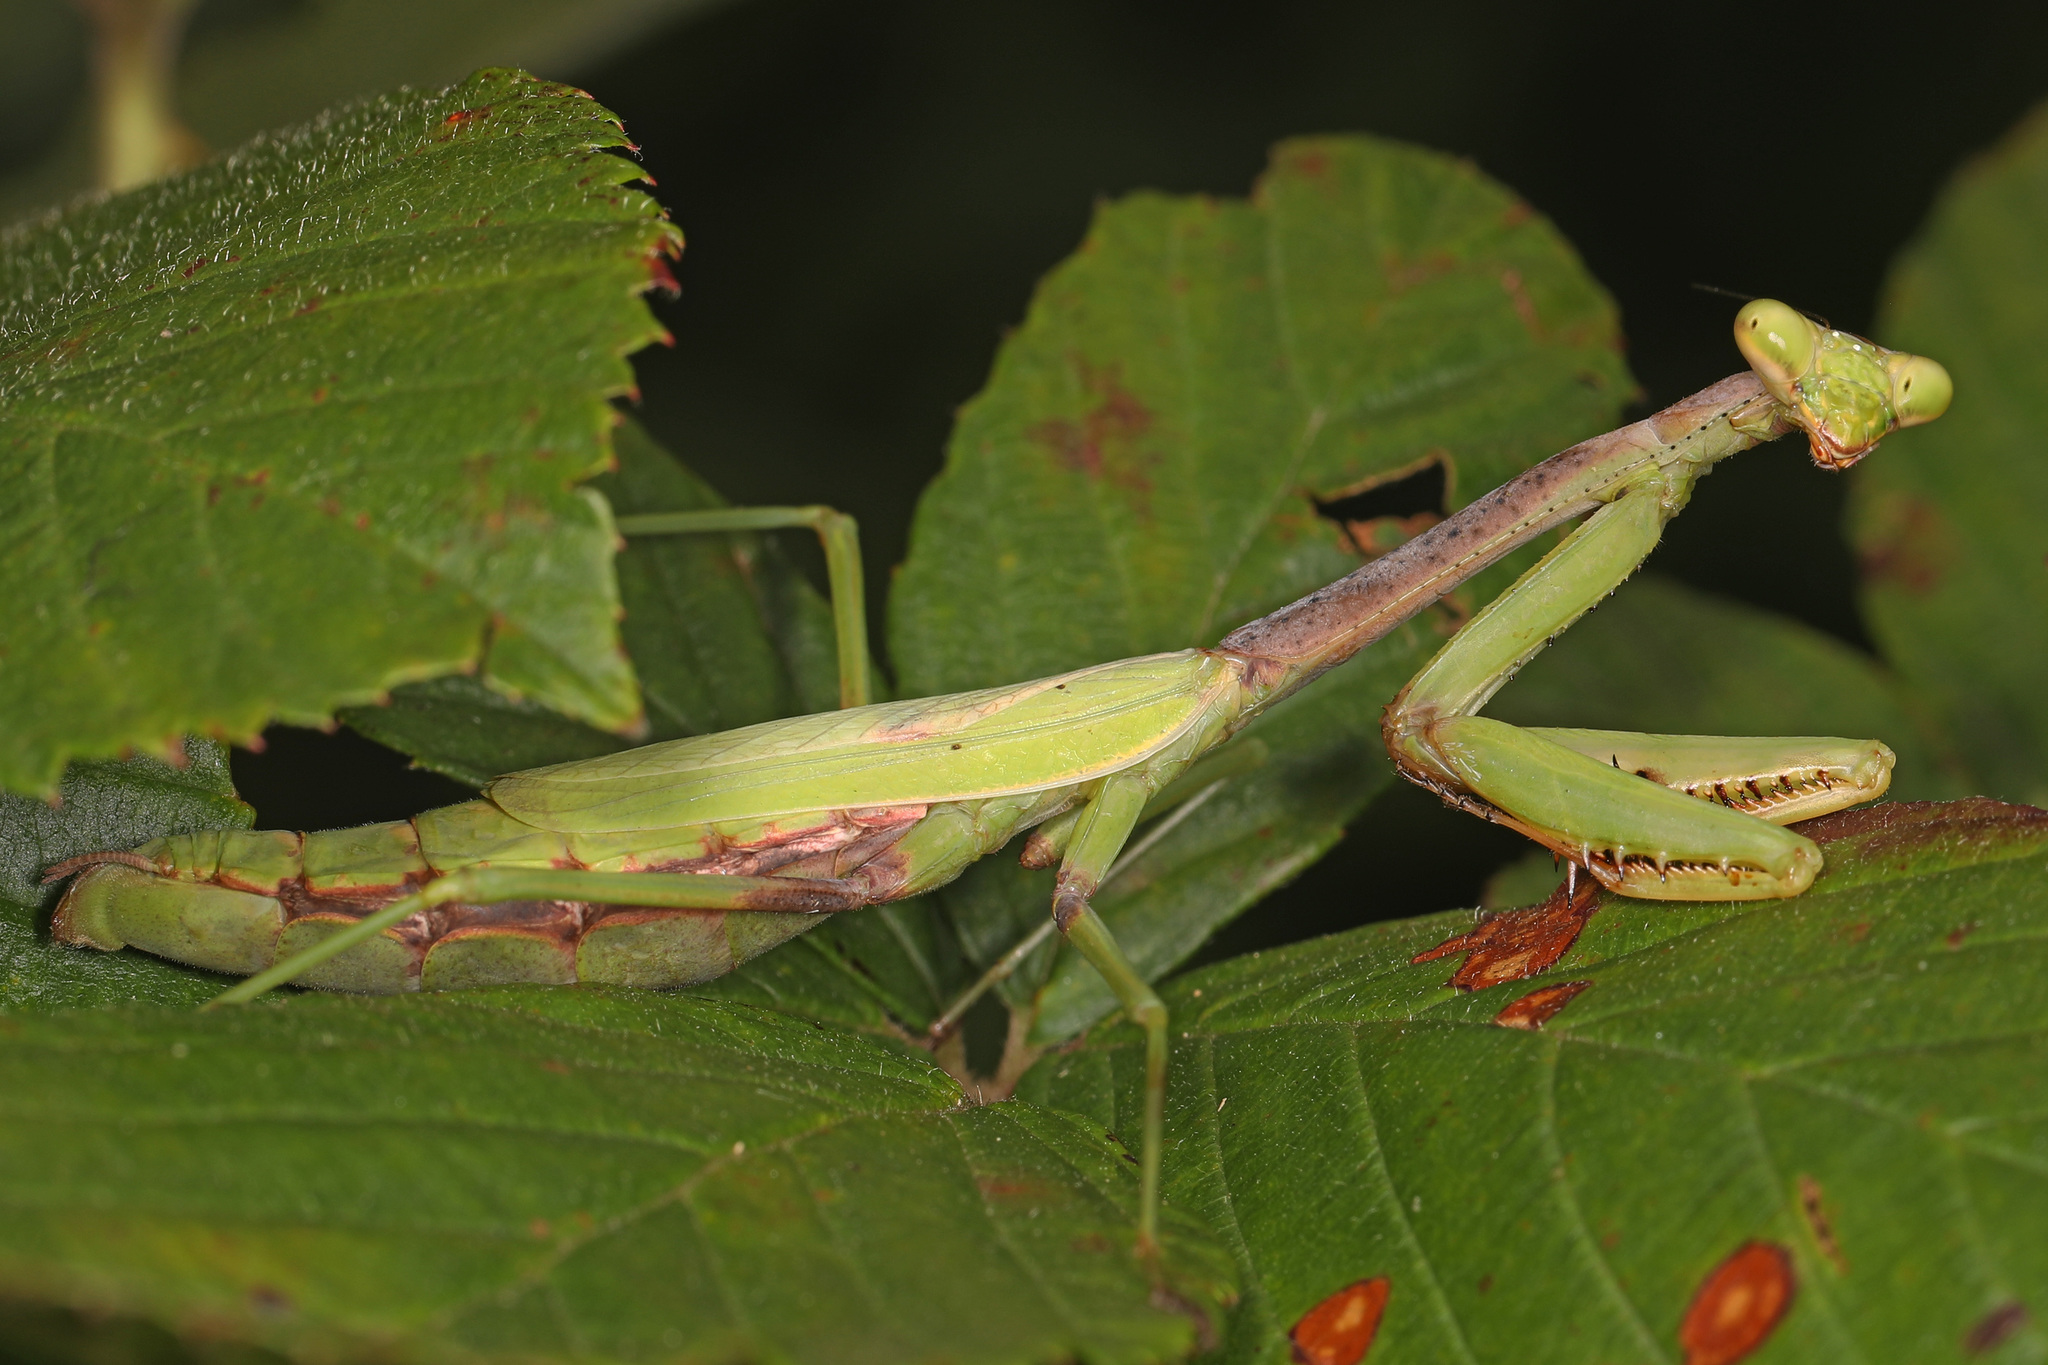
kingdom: Animalia
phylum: Arthropoda
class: Insecta
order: Mantodea
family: Mantidae
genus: Stagmomantis
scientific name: Stagmomantis carolina
